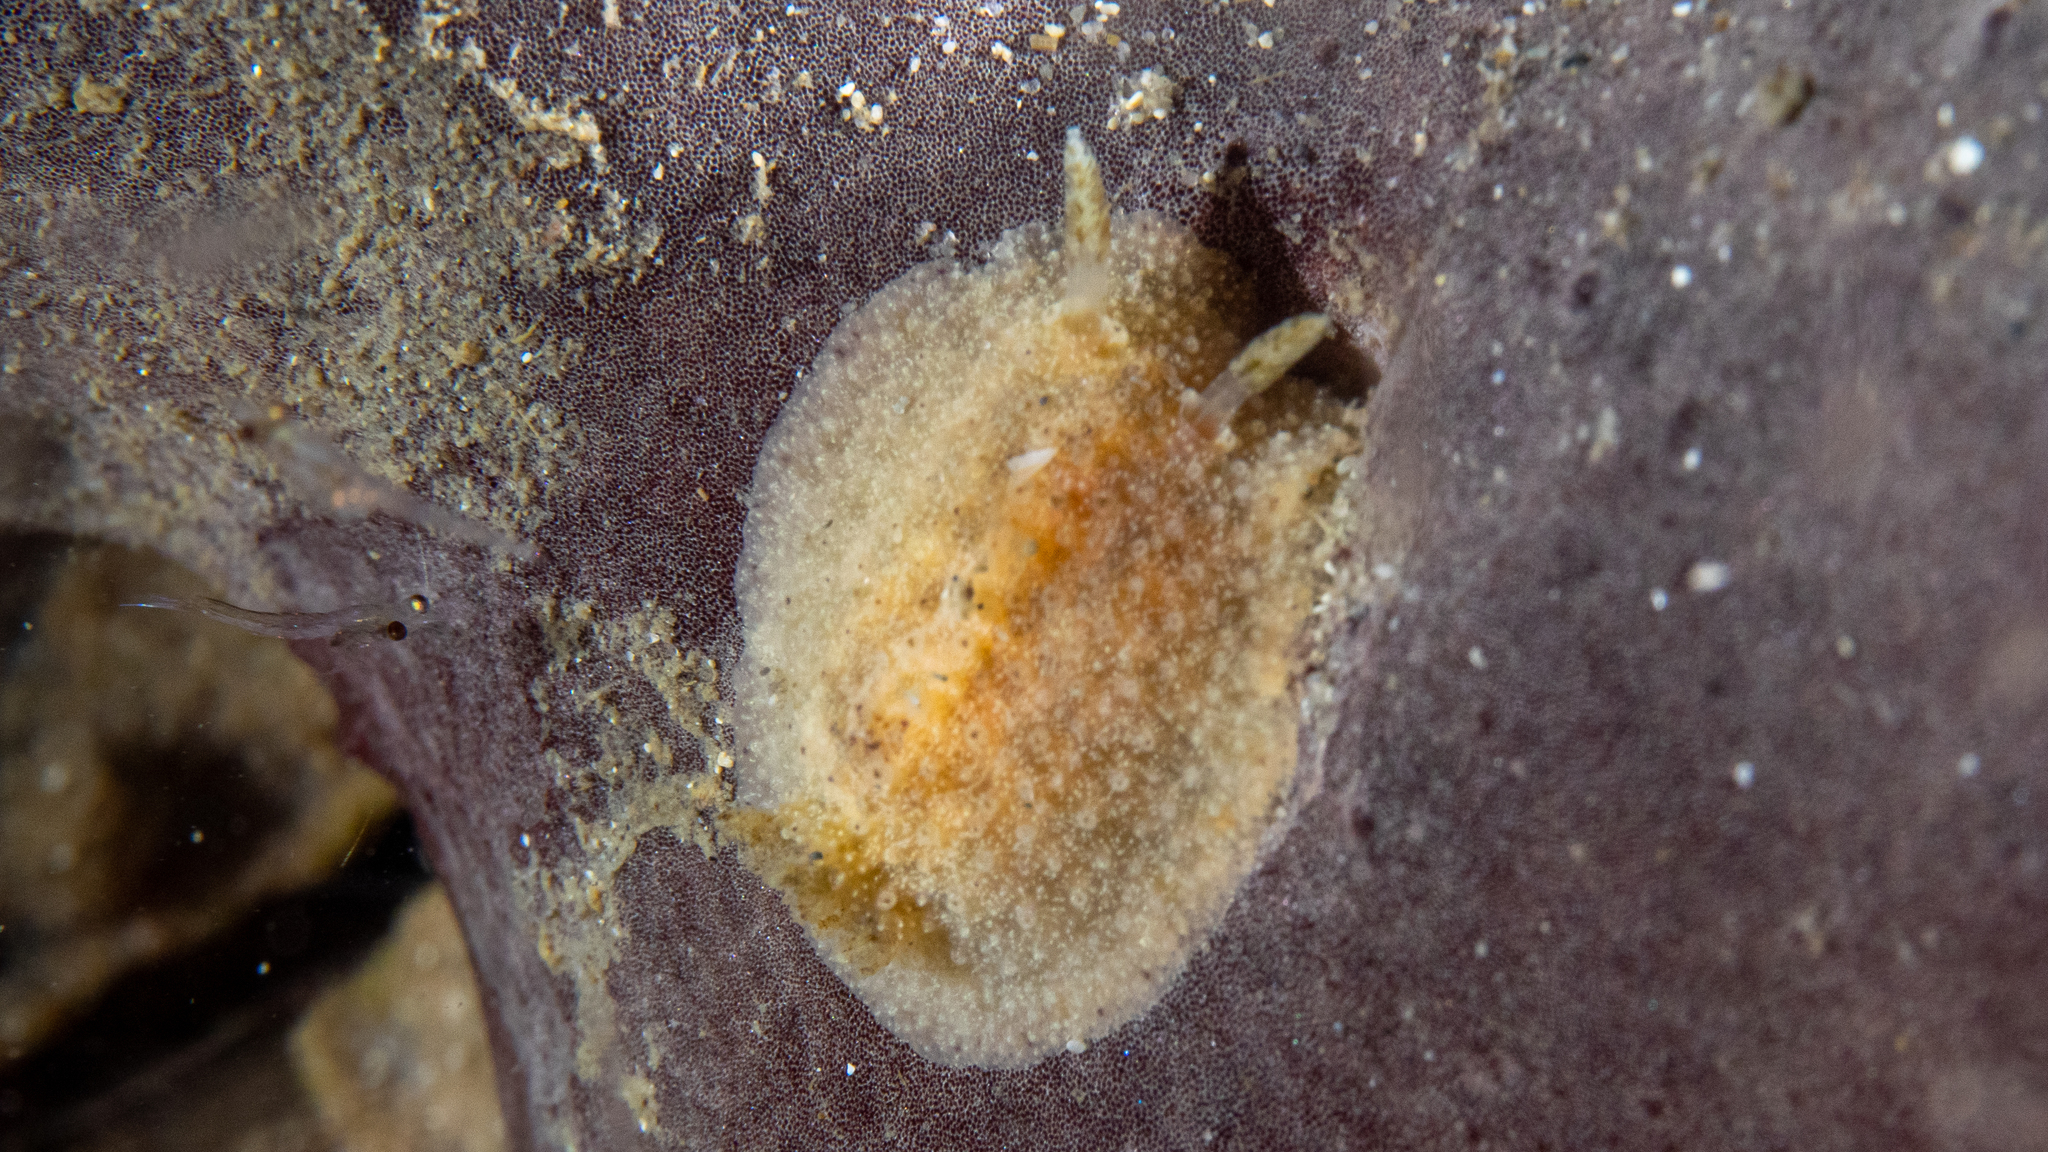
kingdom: Animalia
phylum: Mollusca
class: Gastropoda
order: Nudibranchia
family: Dorididae
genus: Doris
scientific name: Doris cameroni
